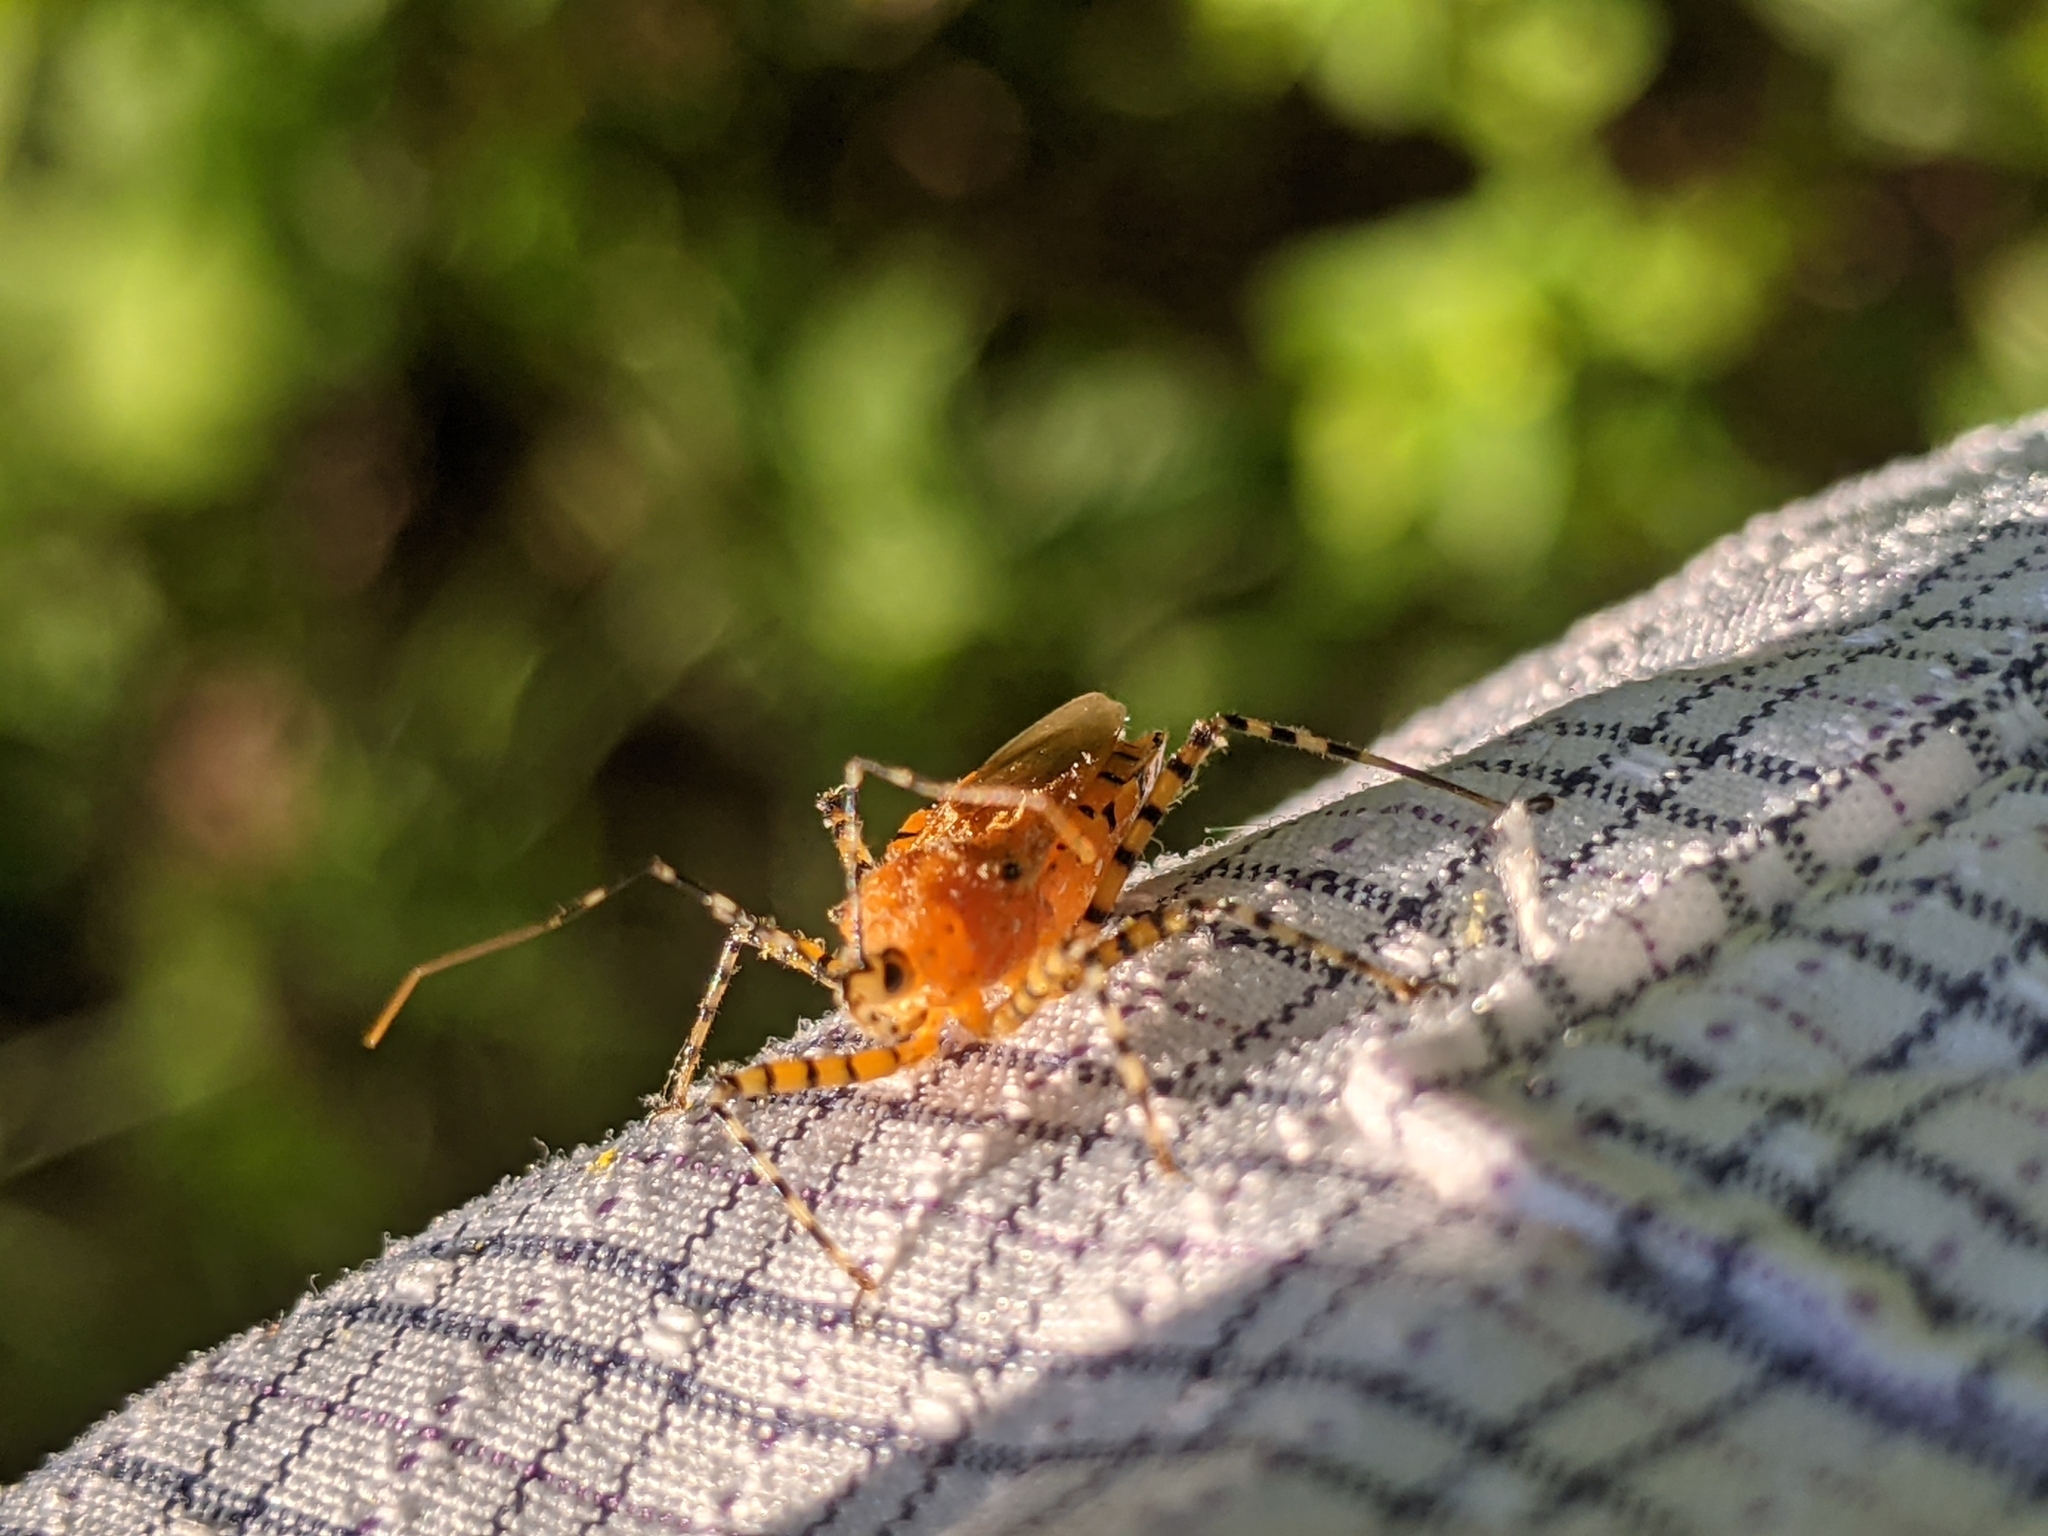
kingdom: Animalia
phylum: Arthropoda
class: Insecta
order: Hemiptera
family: Reduviidae
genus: Pselliopus
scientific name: Pselliopus barberi
